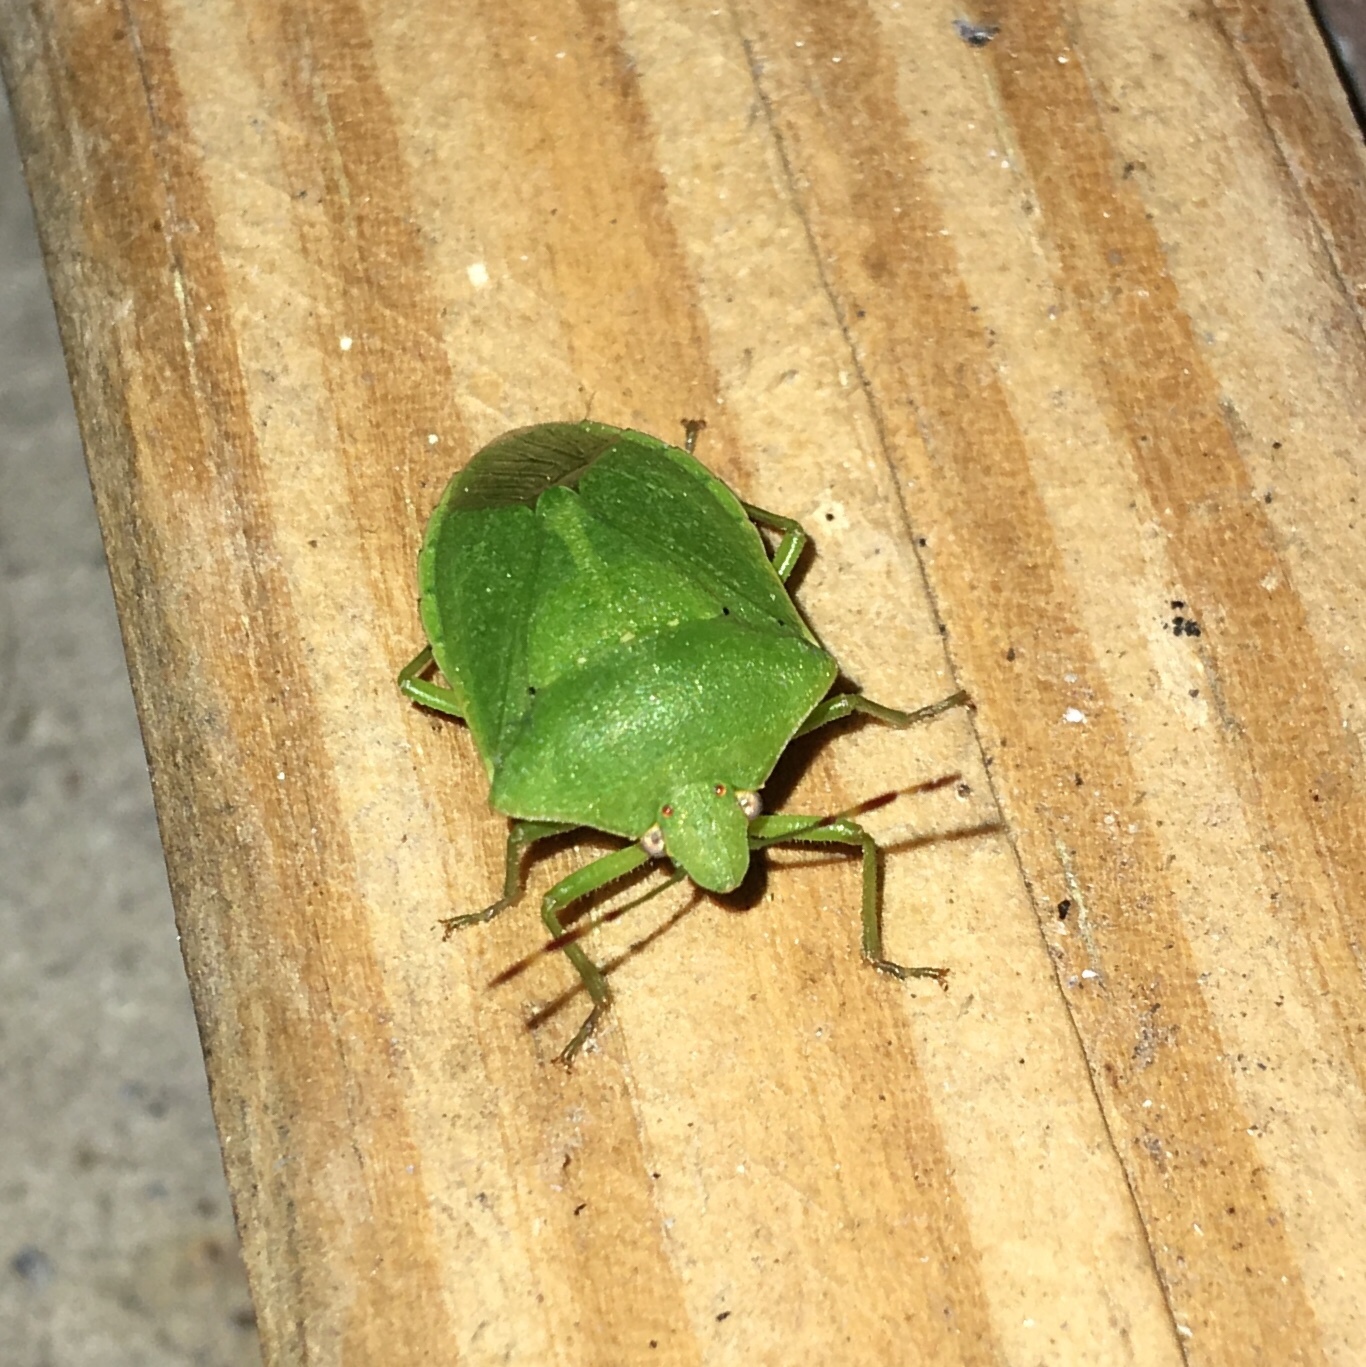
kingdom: Animalia
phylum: Arthropoda
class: Insecta
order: Hemiptera
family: Pentatomidae
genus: Nezara
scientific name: Nezara viridula
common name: Southern green stink bug
